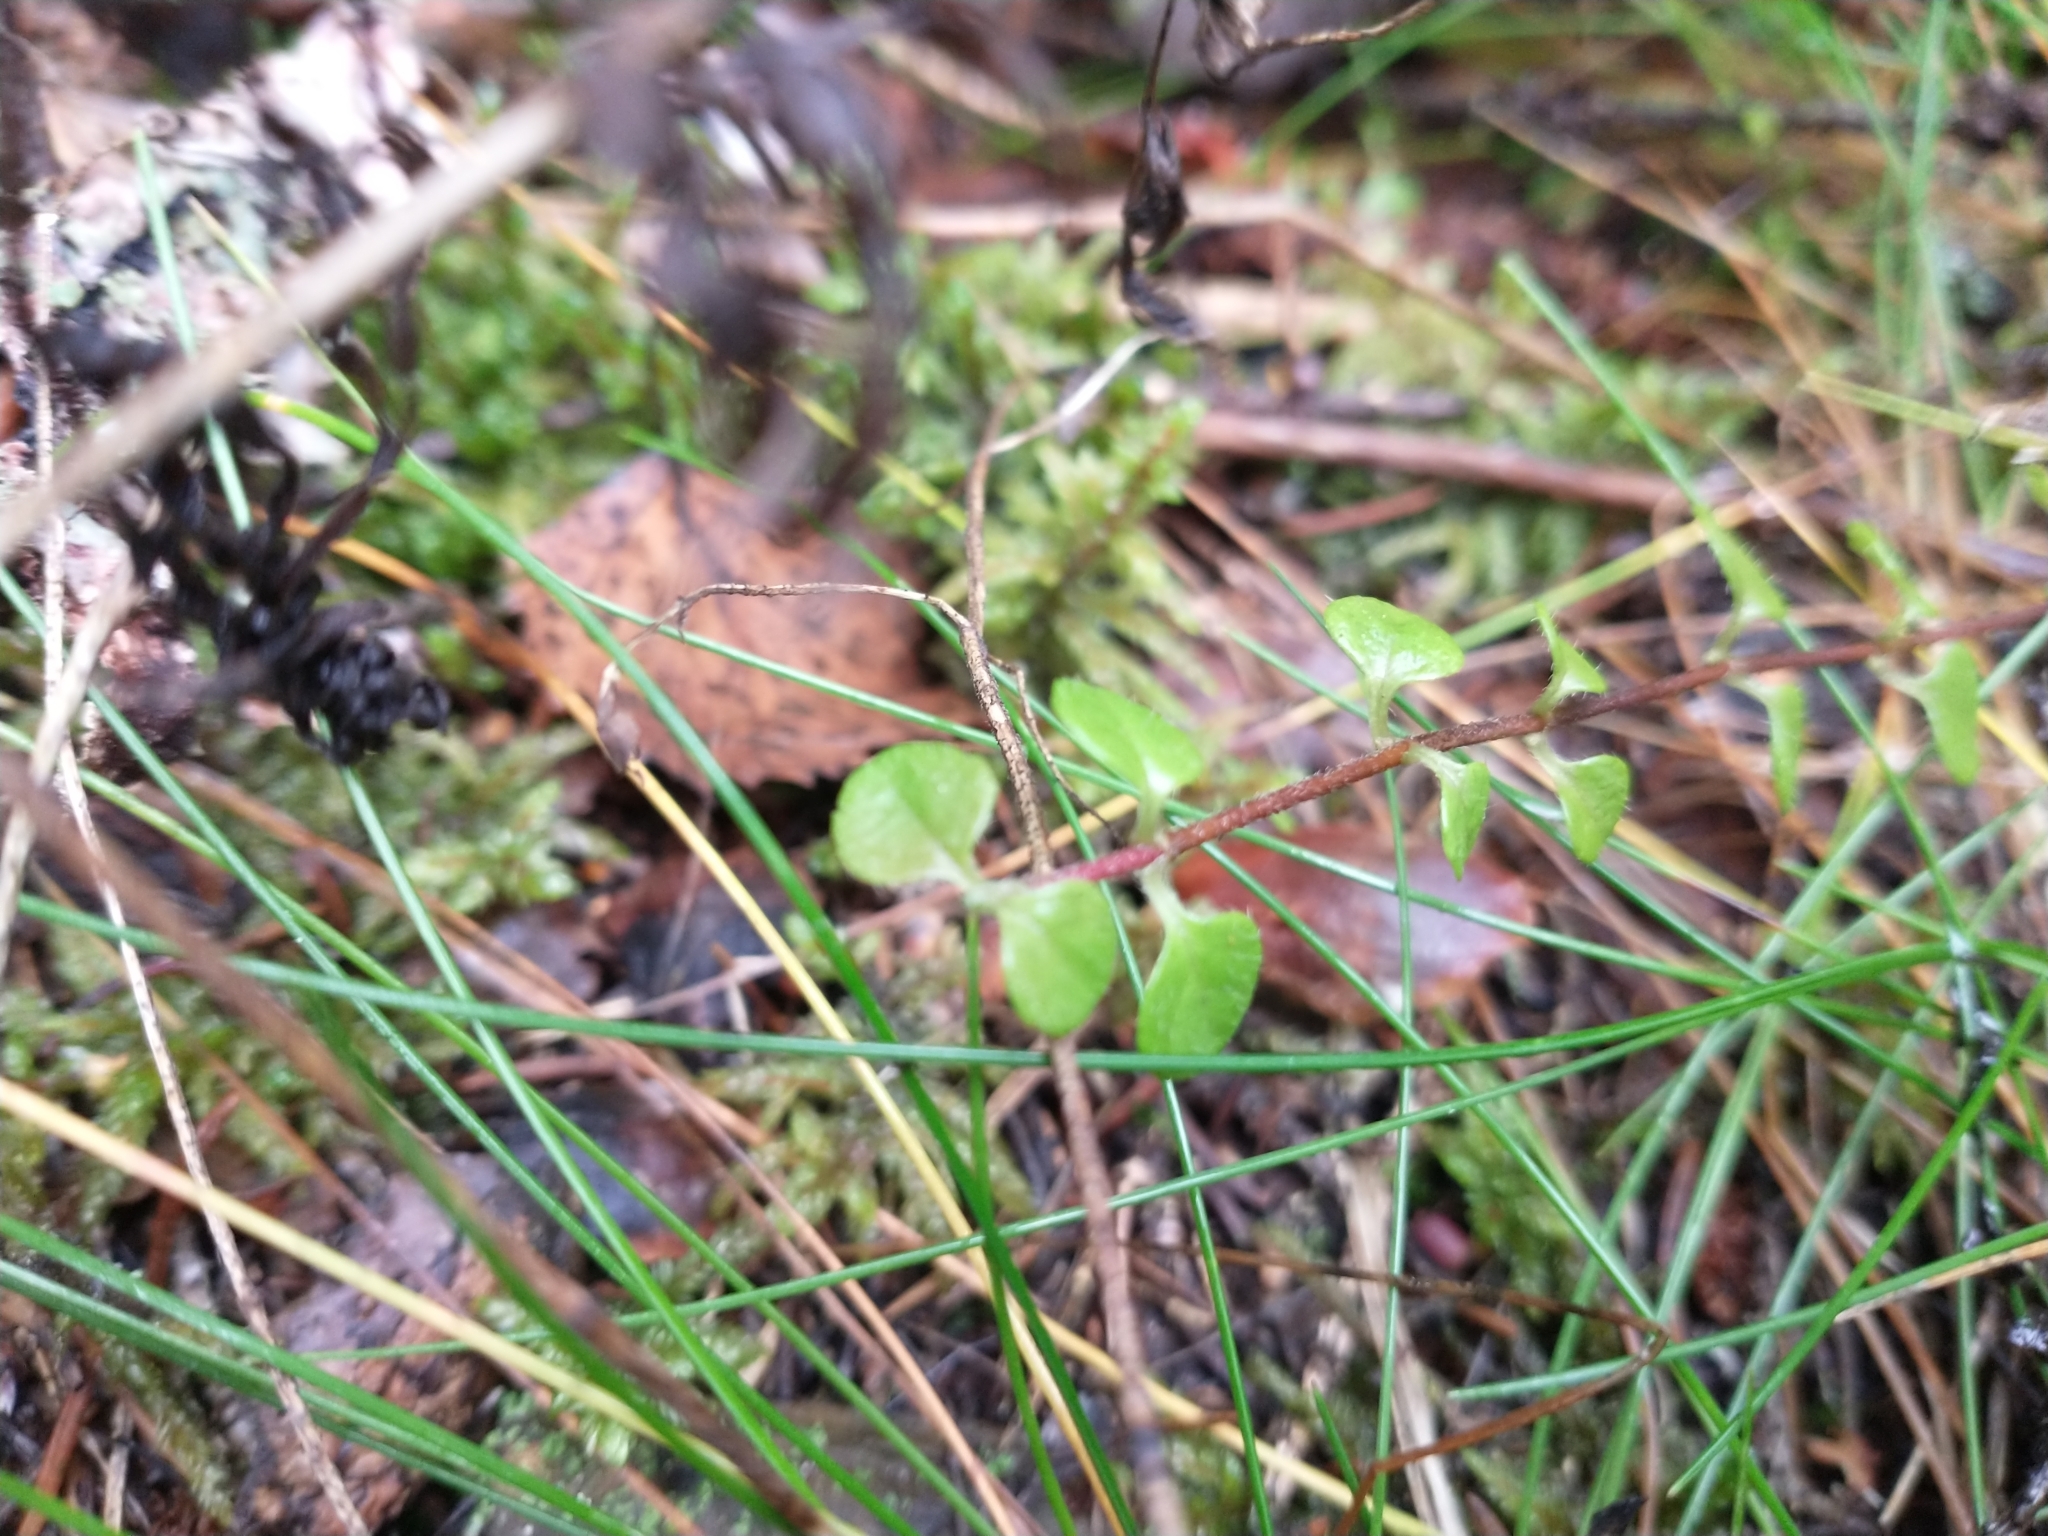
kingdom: Plantae
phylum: Tracheophyta
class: Magnoliopsida
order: Dipsacales
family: Caprifoliaceae
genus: Linnaea
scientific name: Linnaea borealis
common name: Twinflower
